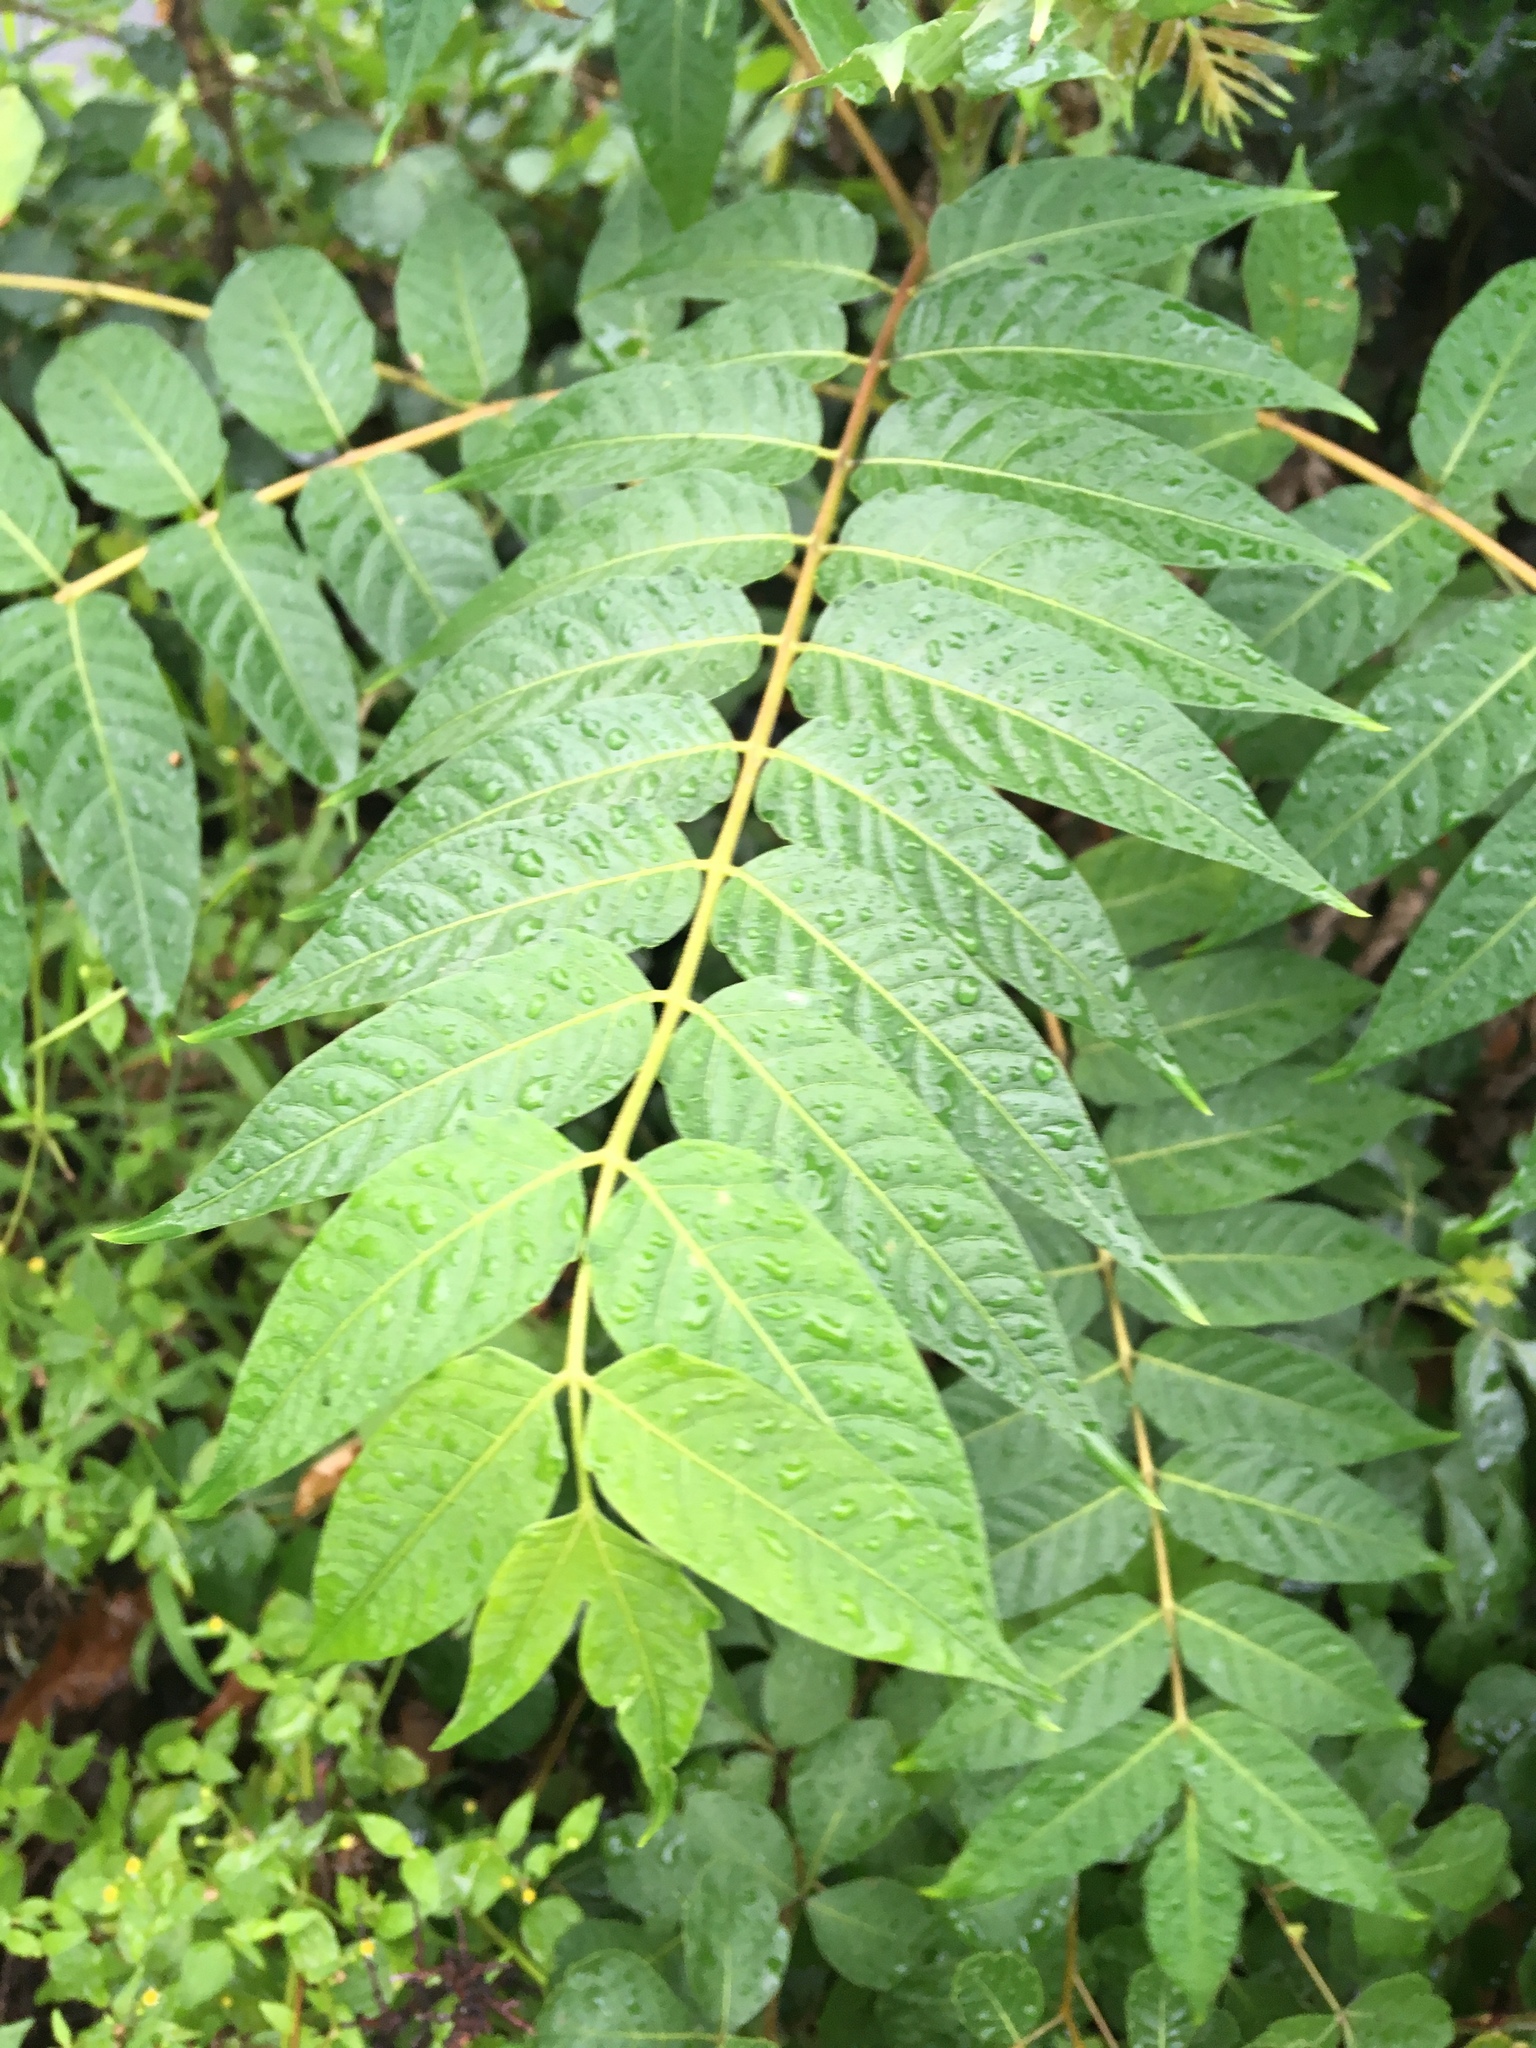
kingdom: Plantae
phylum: Tracheophyta
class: Magnoliopsida
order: Sapindales
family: Simaroubaceae
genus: Ailanthus
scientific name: Ailanthus altissima
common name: Tree-of-heaven
